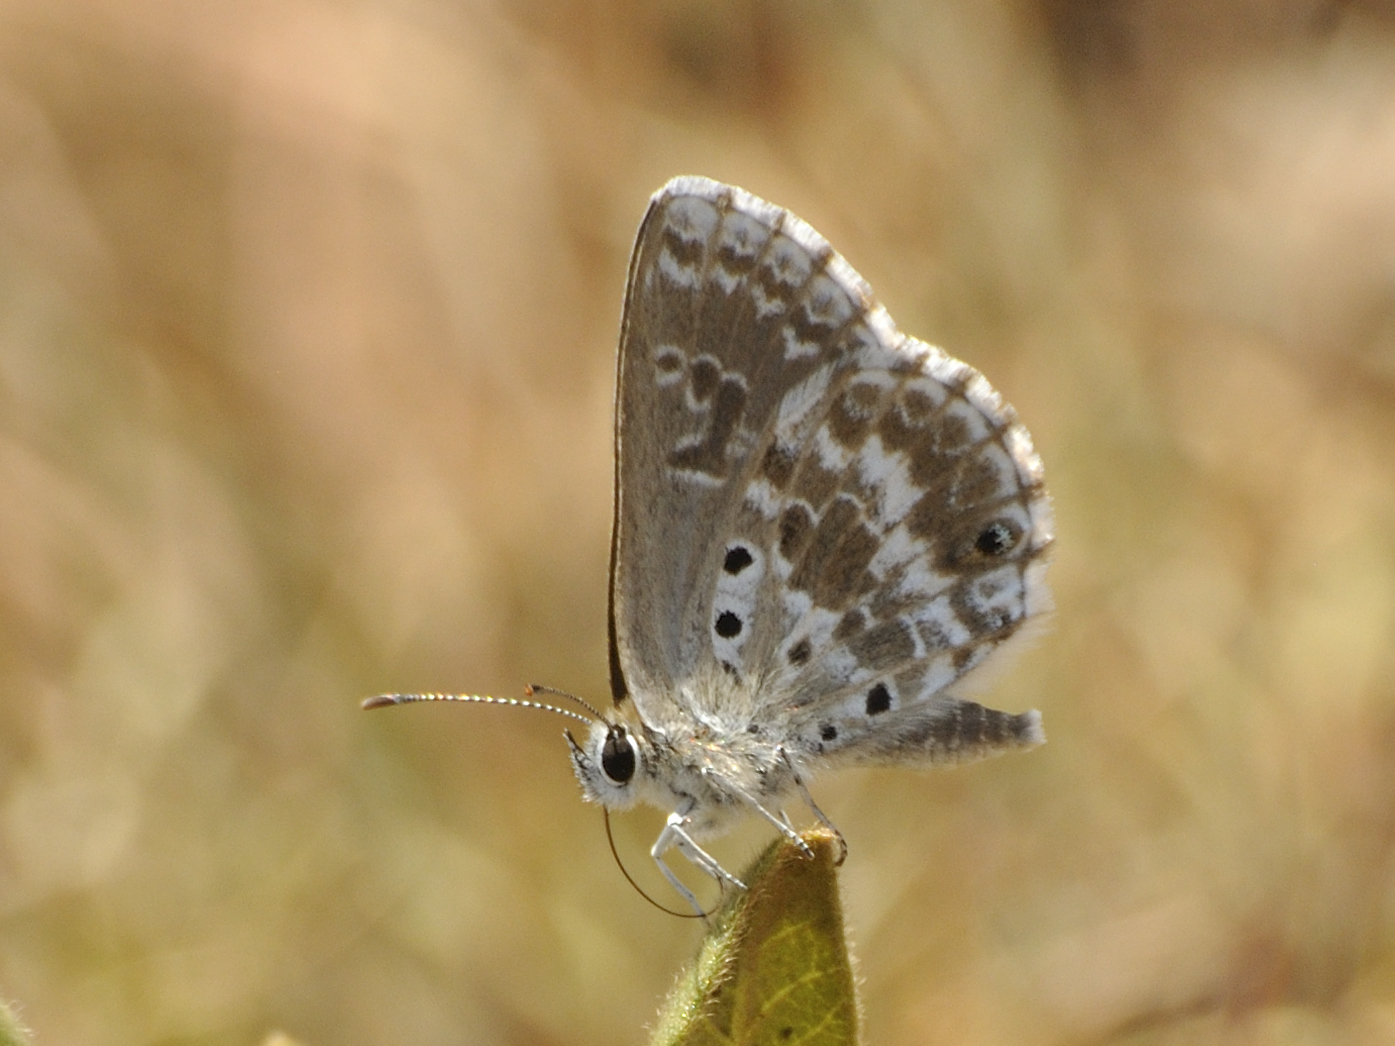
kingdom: Animalia
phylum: Arthropoda
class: Insecta
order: Lepidoptera
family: Lycaenidae
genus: Lepidochrysops
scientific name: Lepidochrysops variabilis
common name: Variable blue
